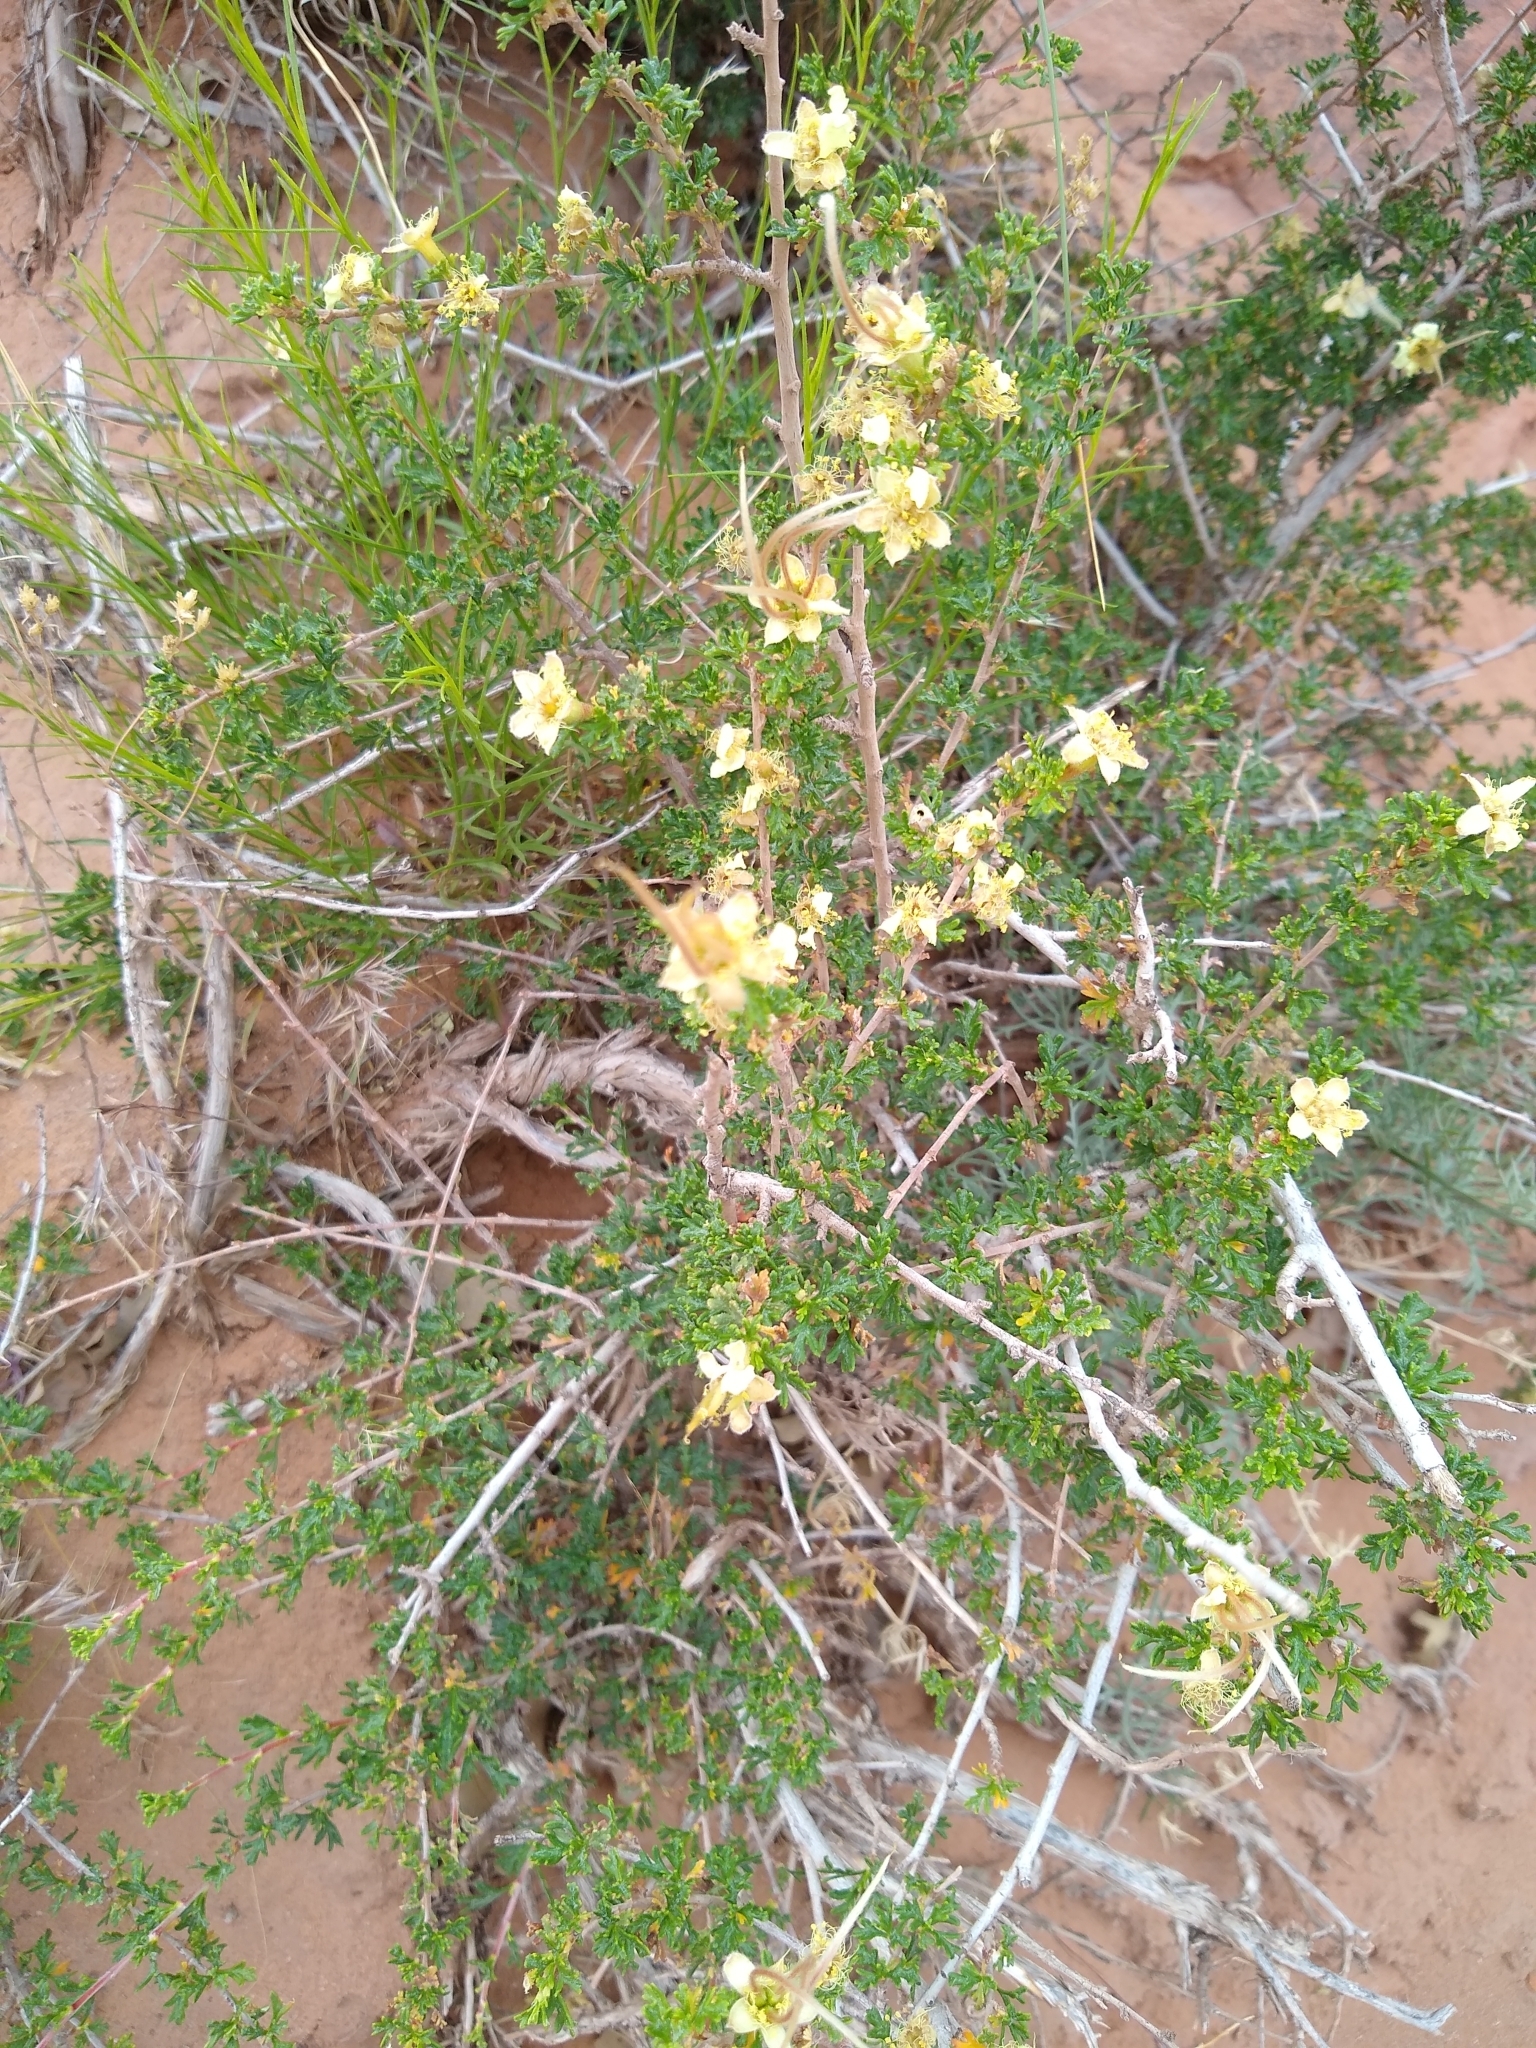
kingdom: Plantae
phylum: Tracheophyta
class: Magnoliopsida
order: Rosales
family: Rosaceae
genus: Purshia
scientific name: Purshia stansburiana
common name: Stansbury's cliffrose
